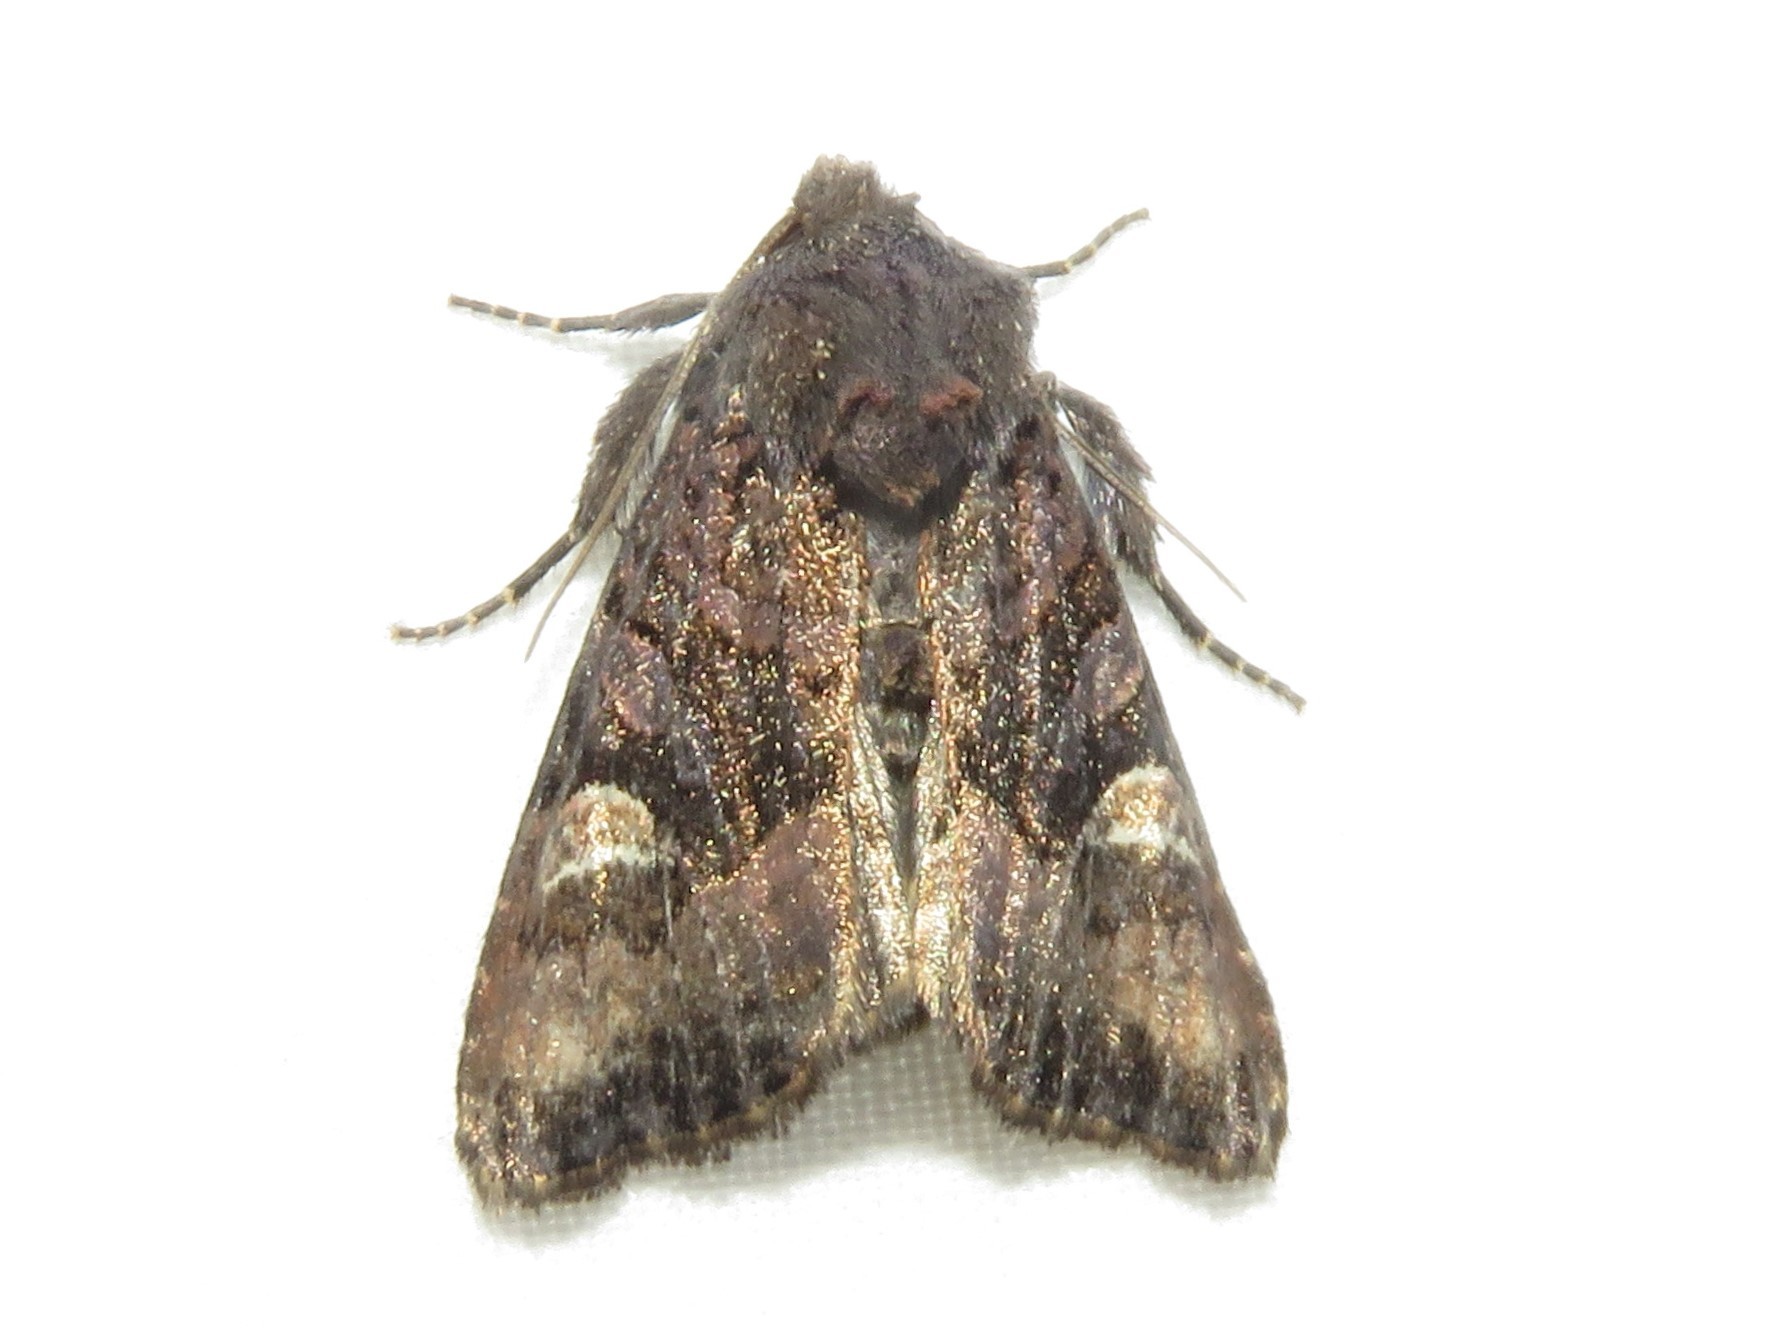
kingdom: Animalia
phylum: Arthropoda
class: Insecta
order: Lepidoptera
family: Noctuidae
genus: Euplexia
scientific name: Euplexia benesimilis
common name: American angle shades
